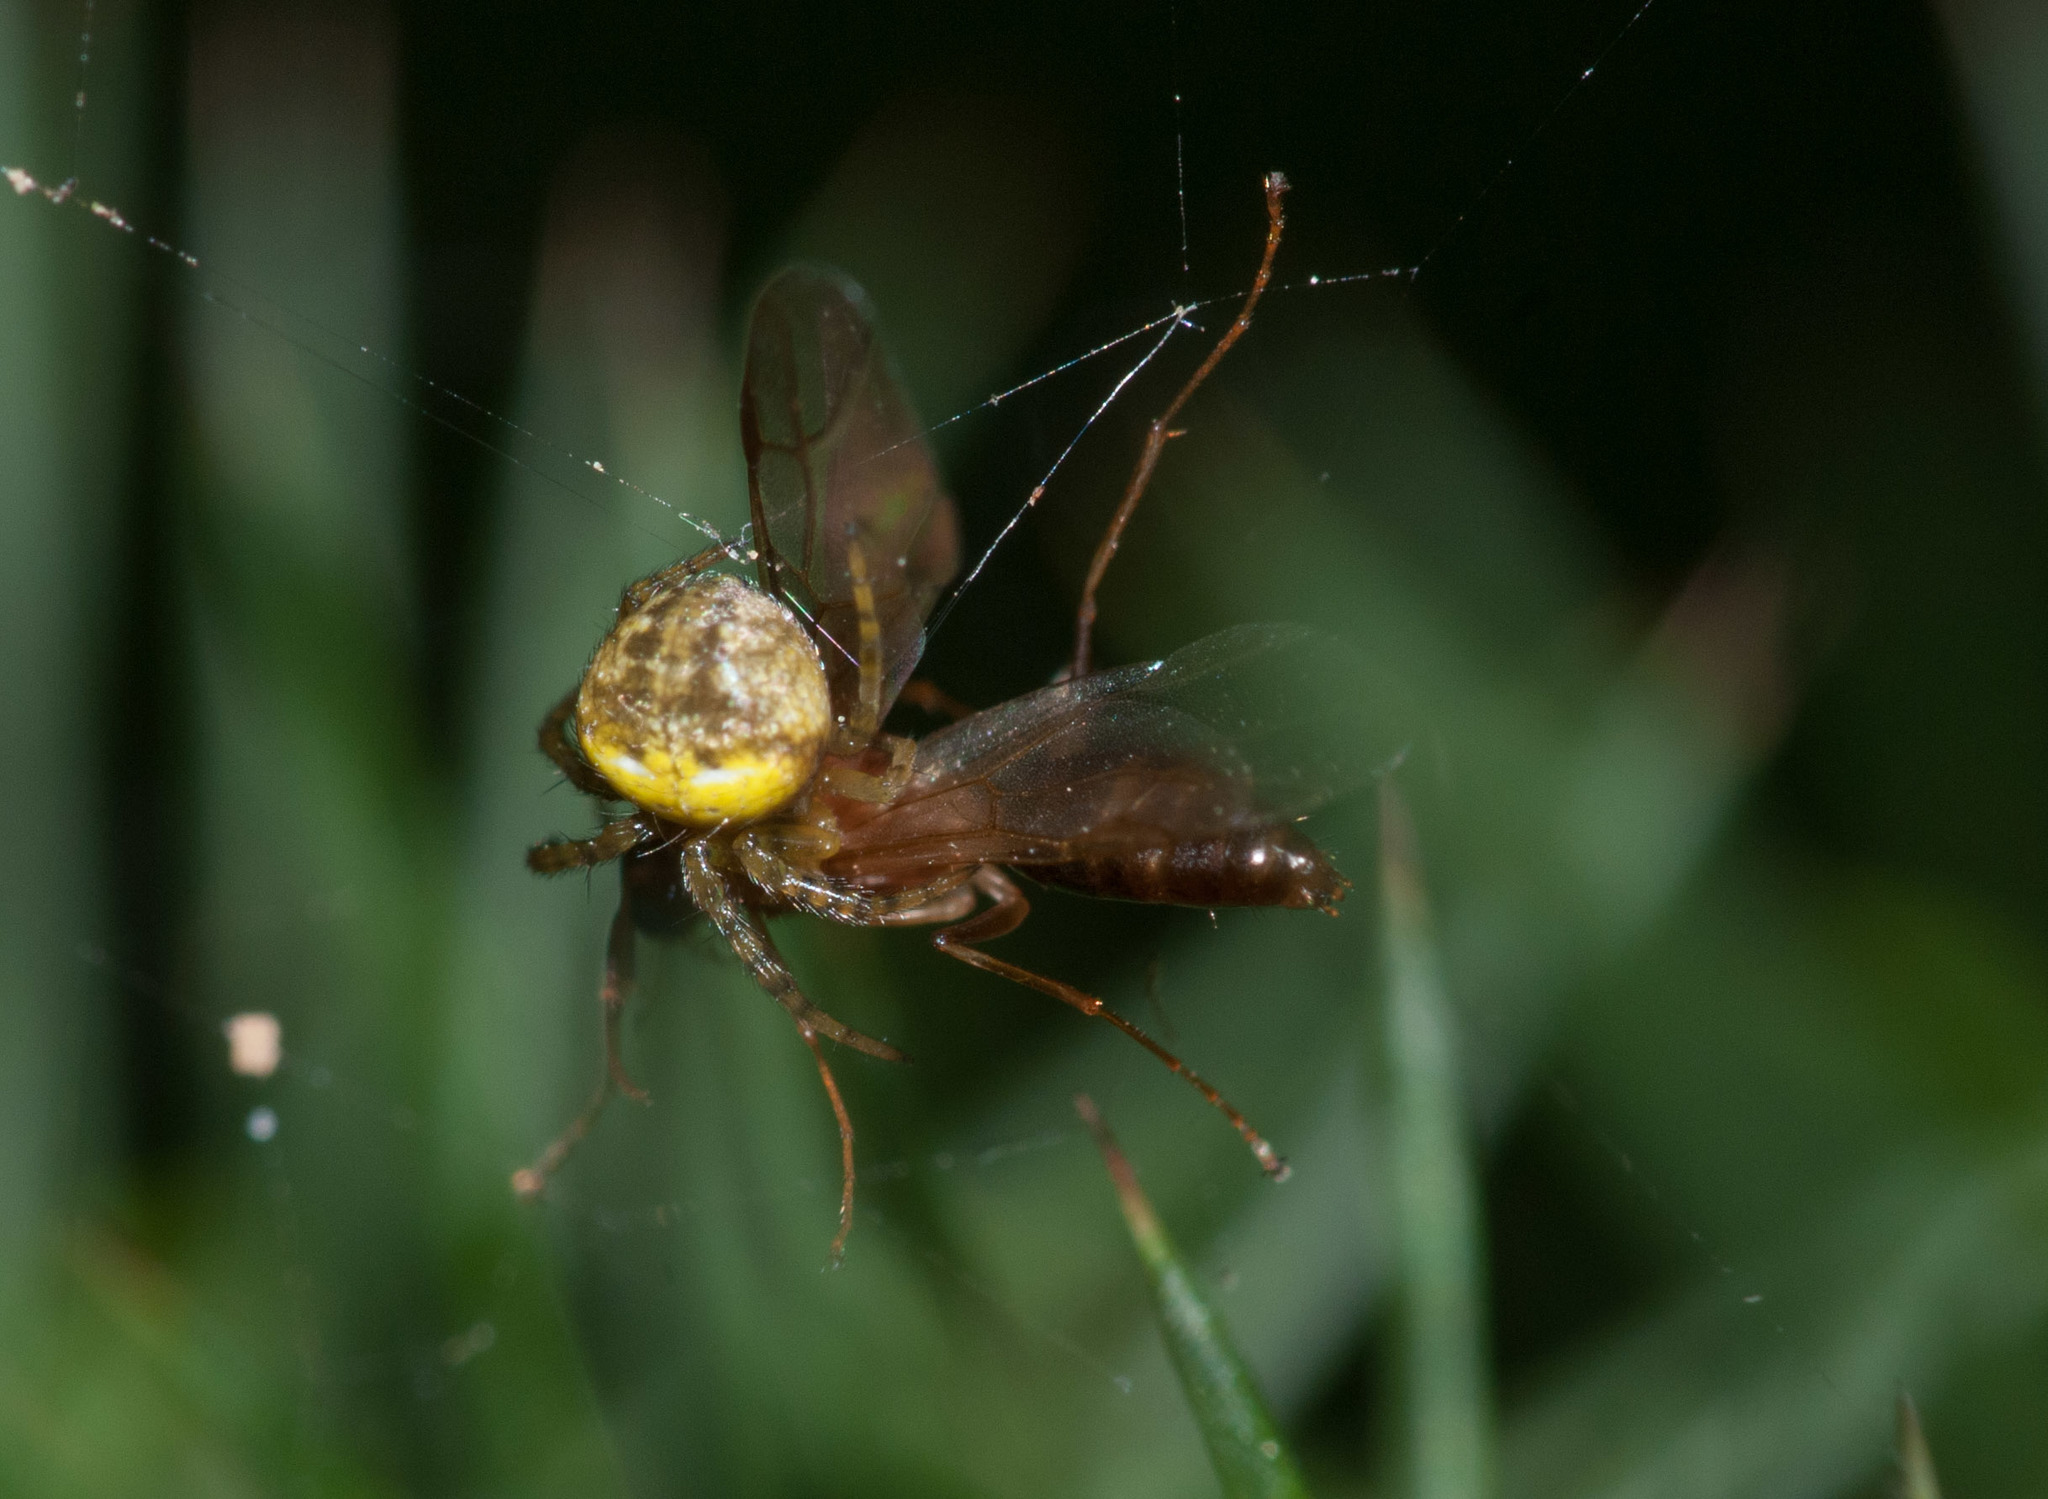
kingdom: Animalia
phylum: Arthropoda
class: Arachnida
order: Araneae
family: Araneidae
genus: Araneus
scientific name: Araneus albotriangulus
